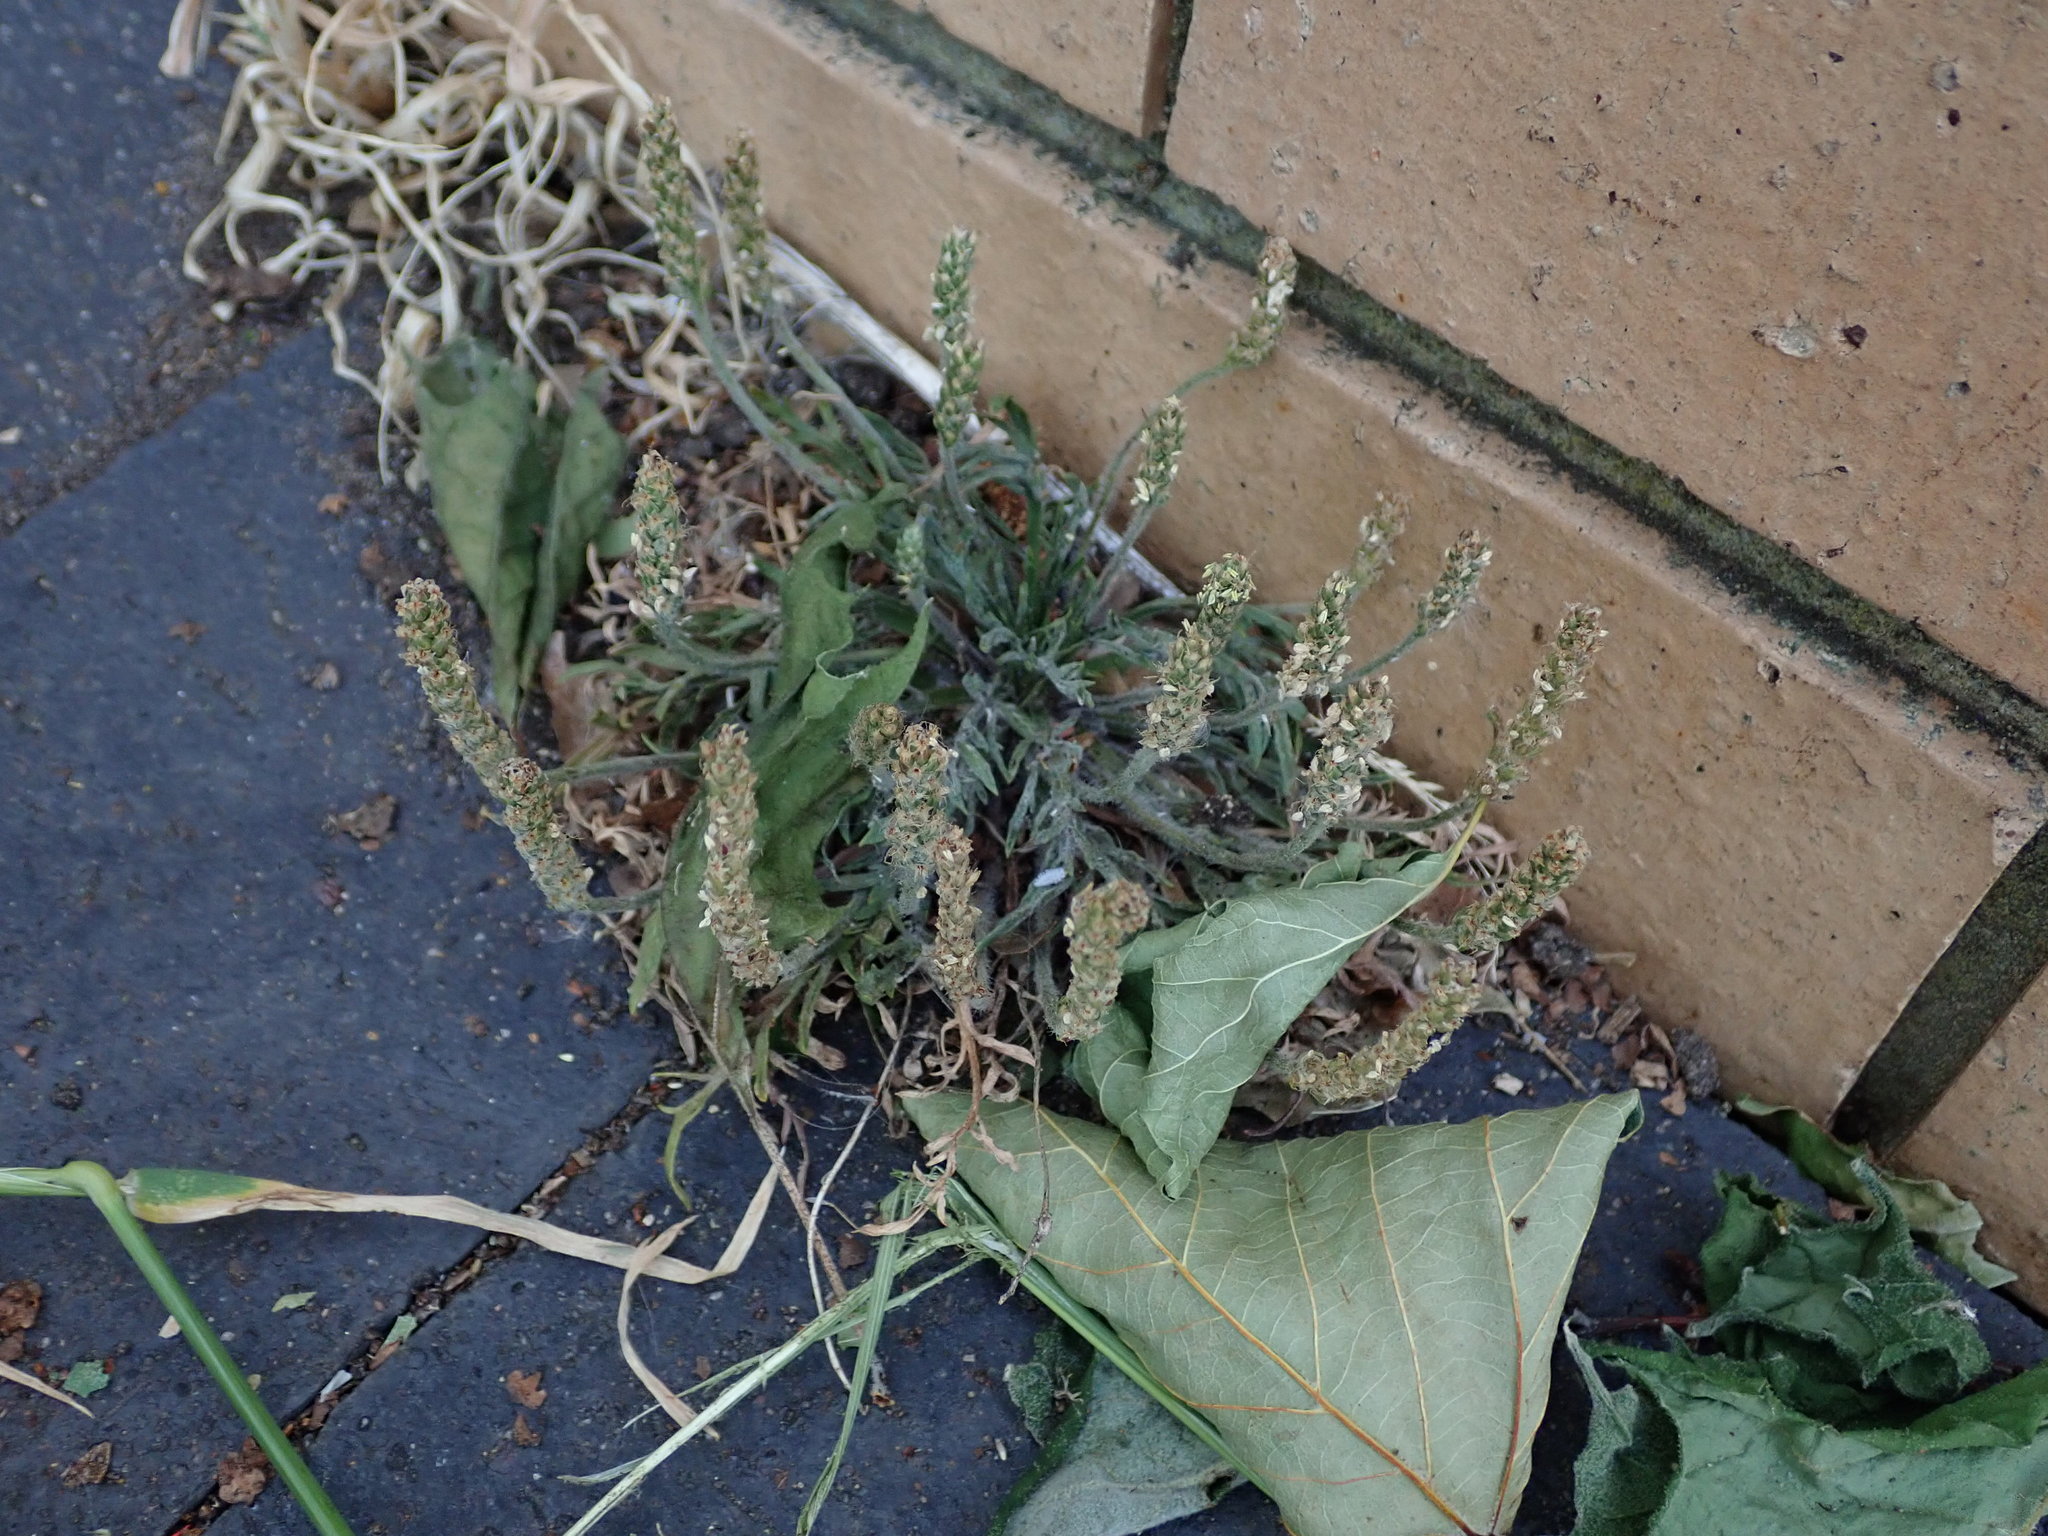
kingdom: Plantae
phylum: Tracheophyta
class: Magnoliopsida
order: Lamiales
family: Plantaginaceae
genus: Plantago
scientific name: Plantago coronopus
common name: Buck's-horn plantain
